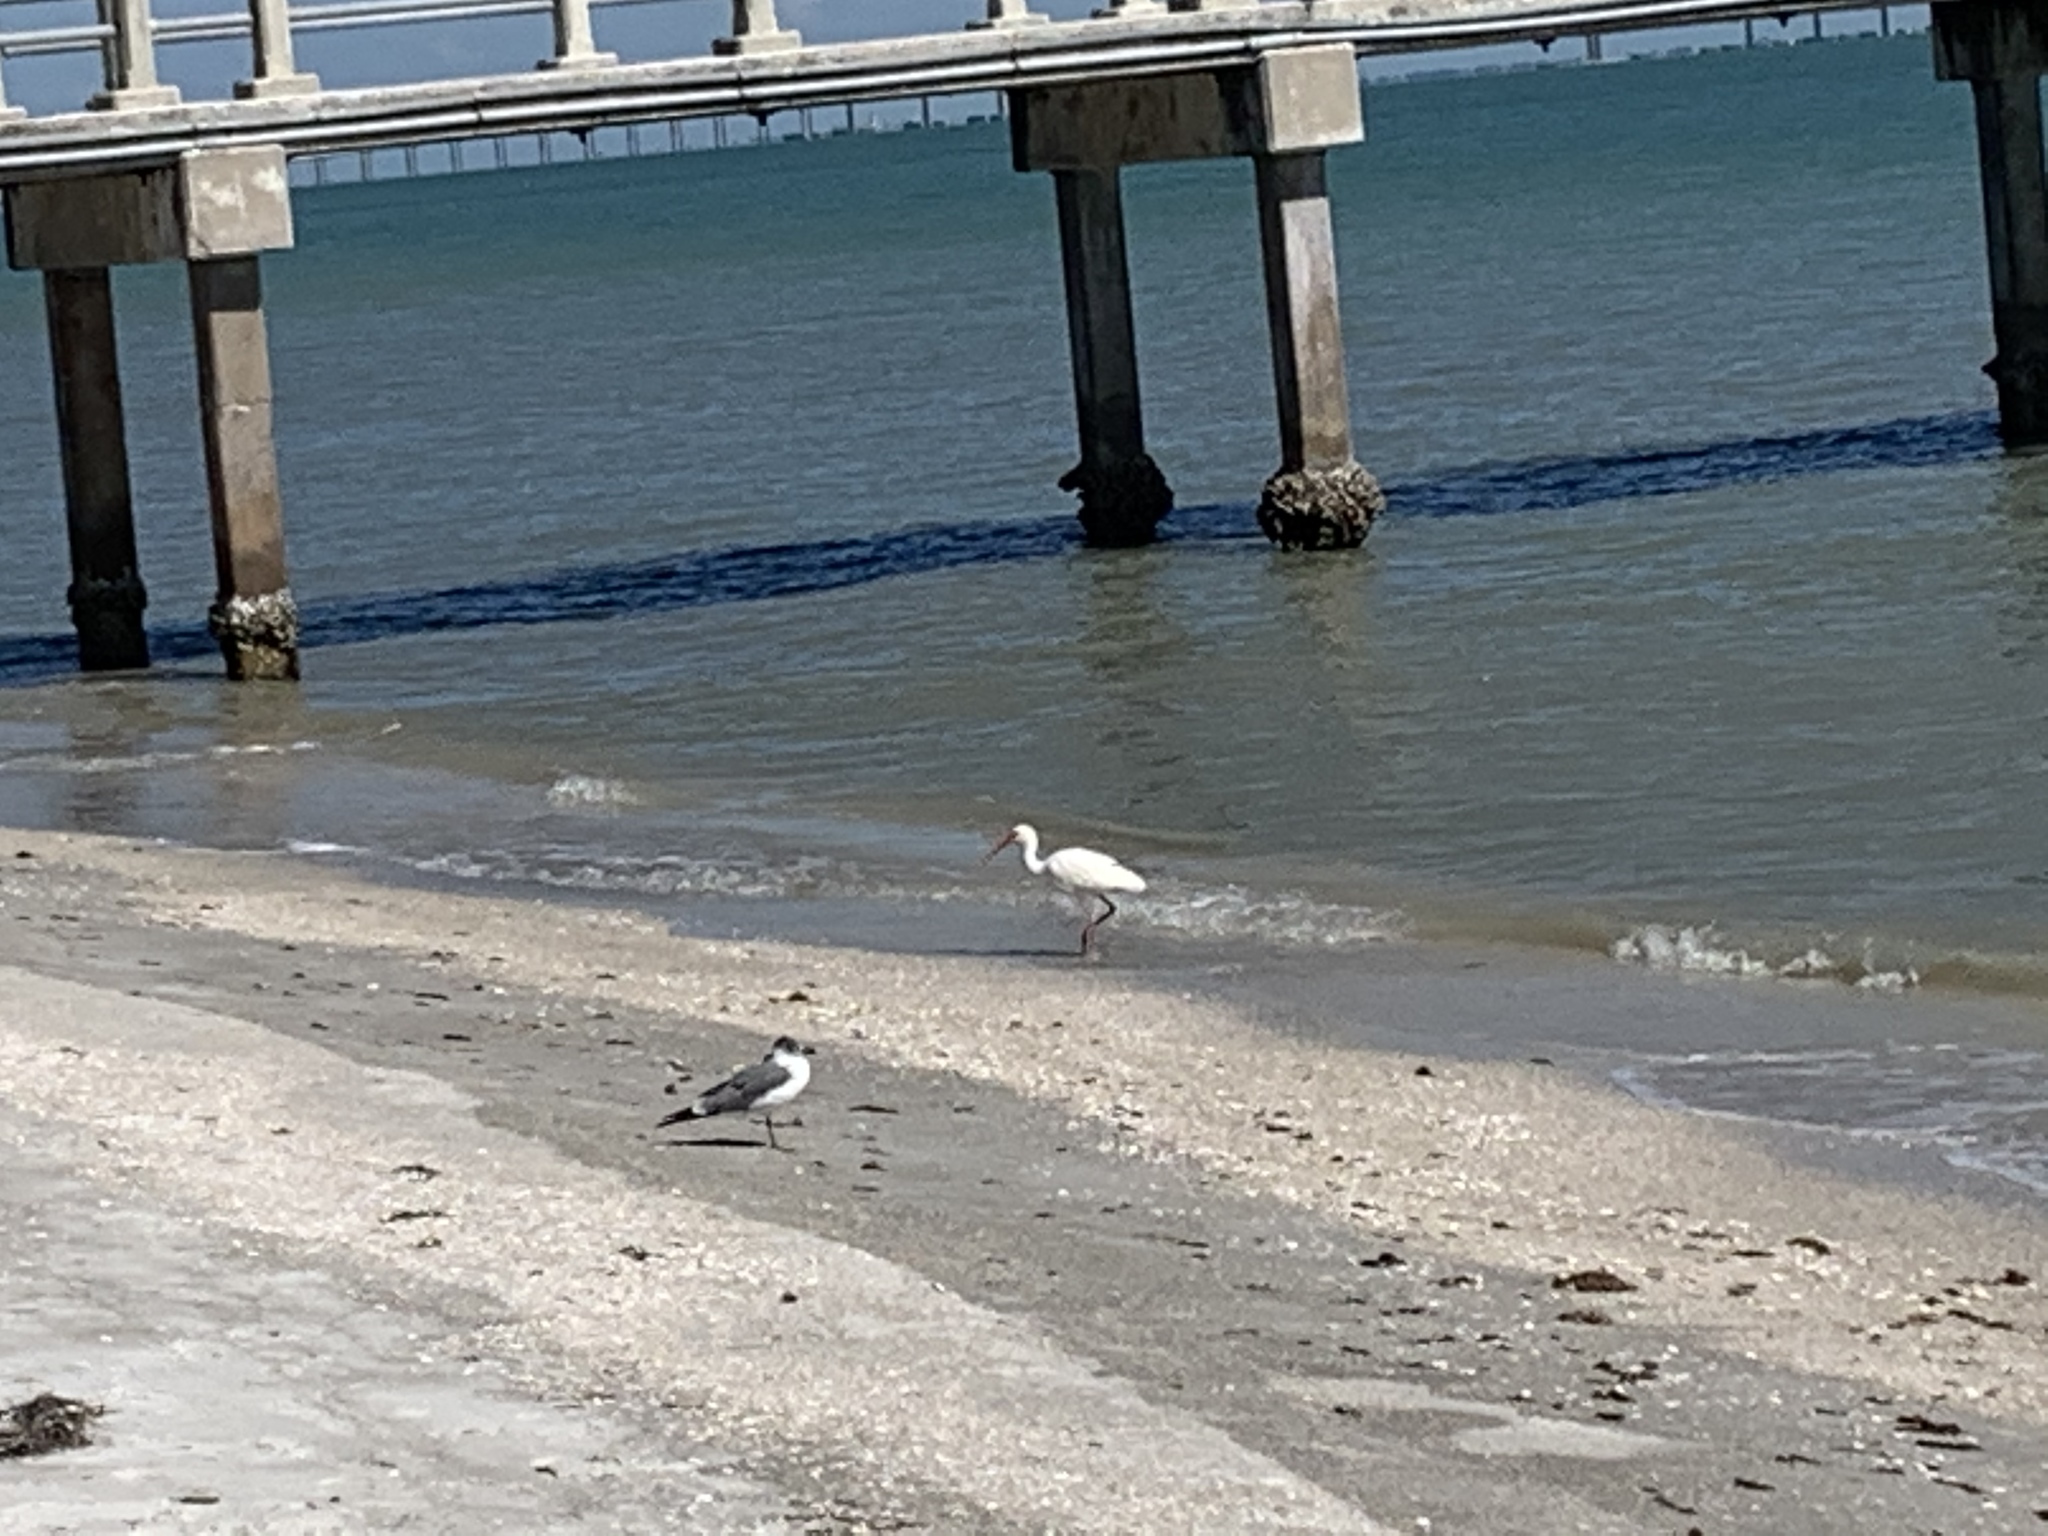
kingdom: Animalia
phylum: Chordata
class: Aves
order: Pelecaniformes
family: Threskiornithidae
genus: Eudocimus
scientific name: Eudocimus albus
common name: White ibis
